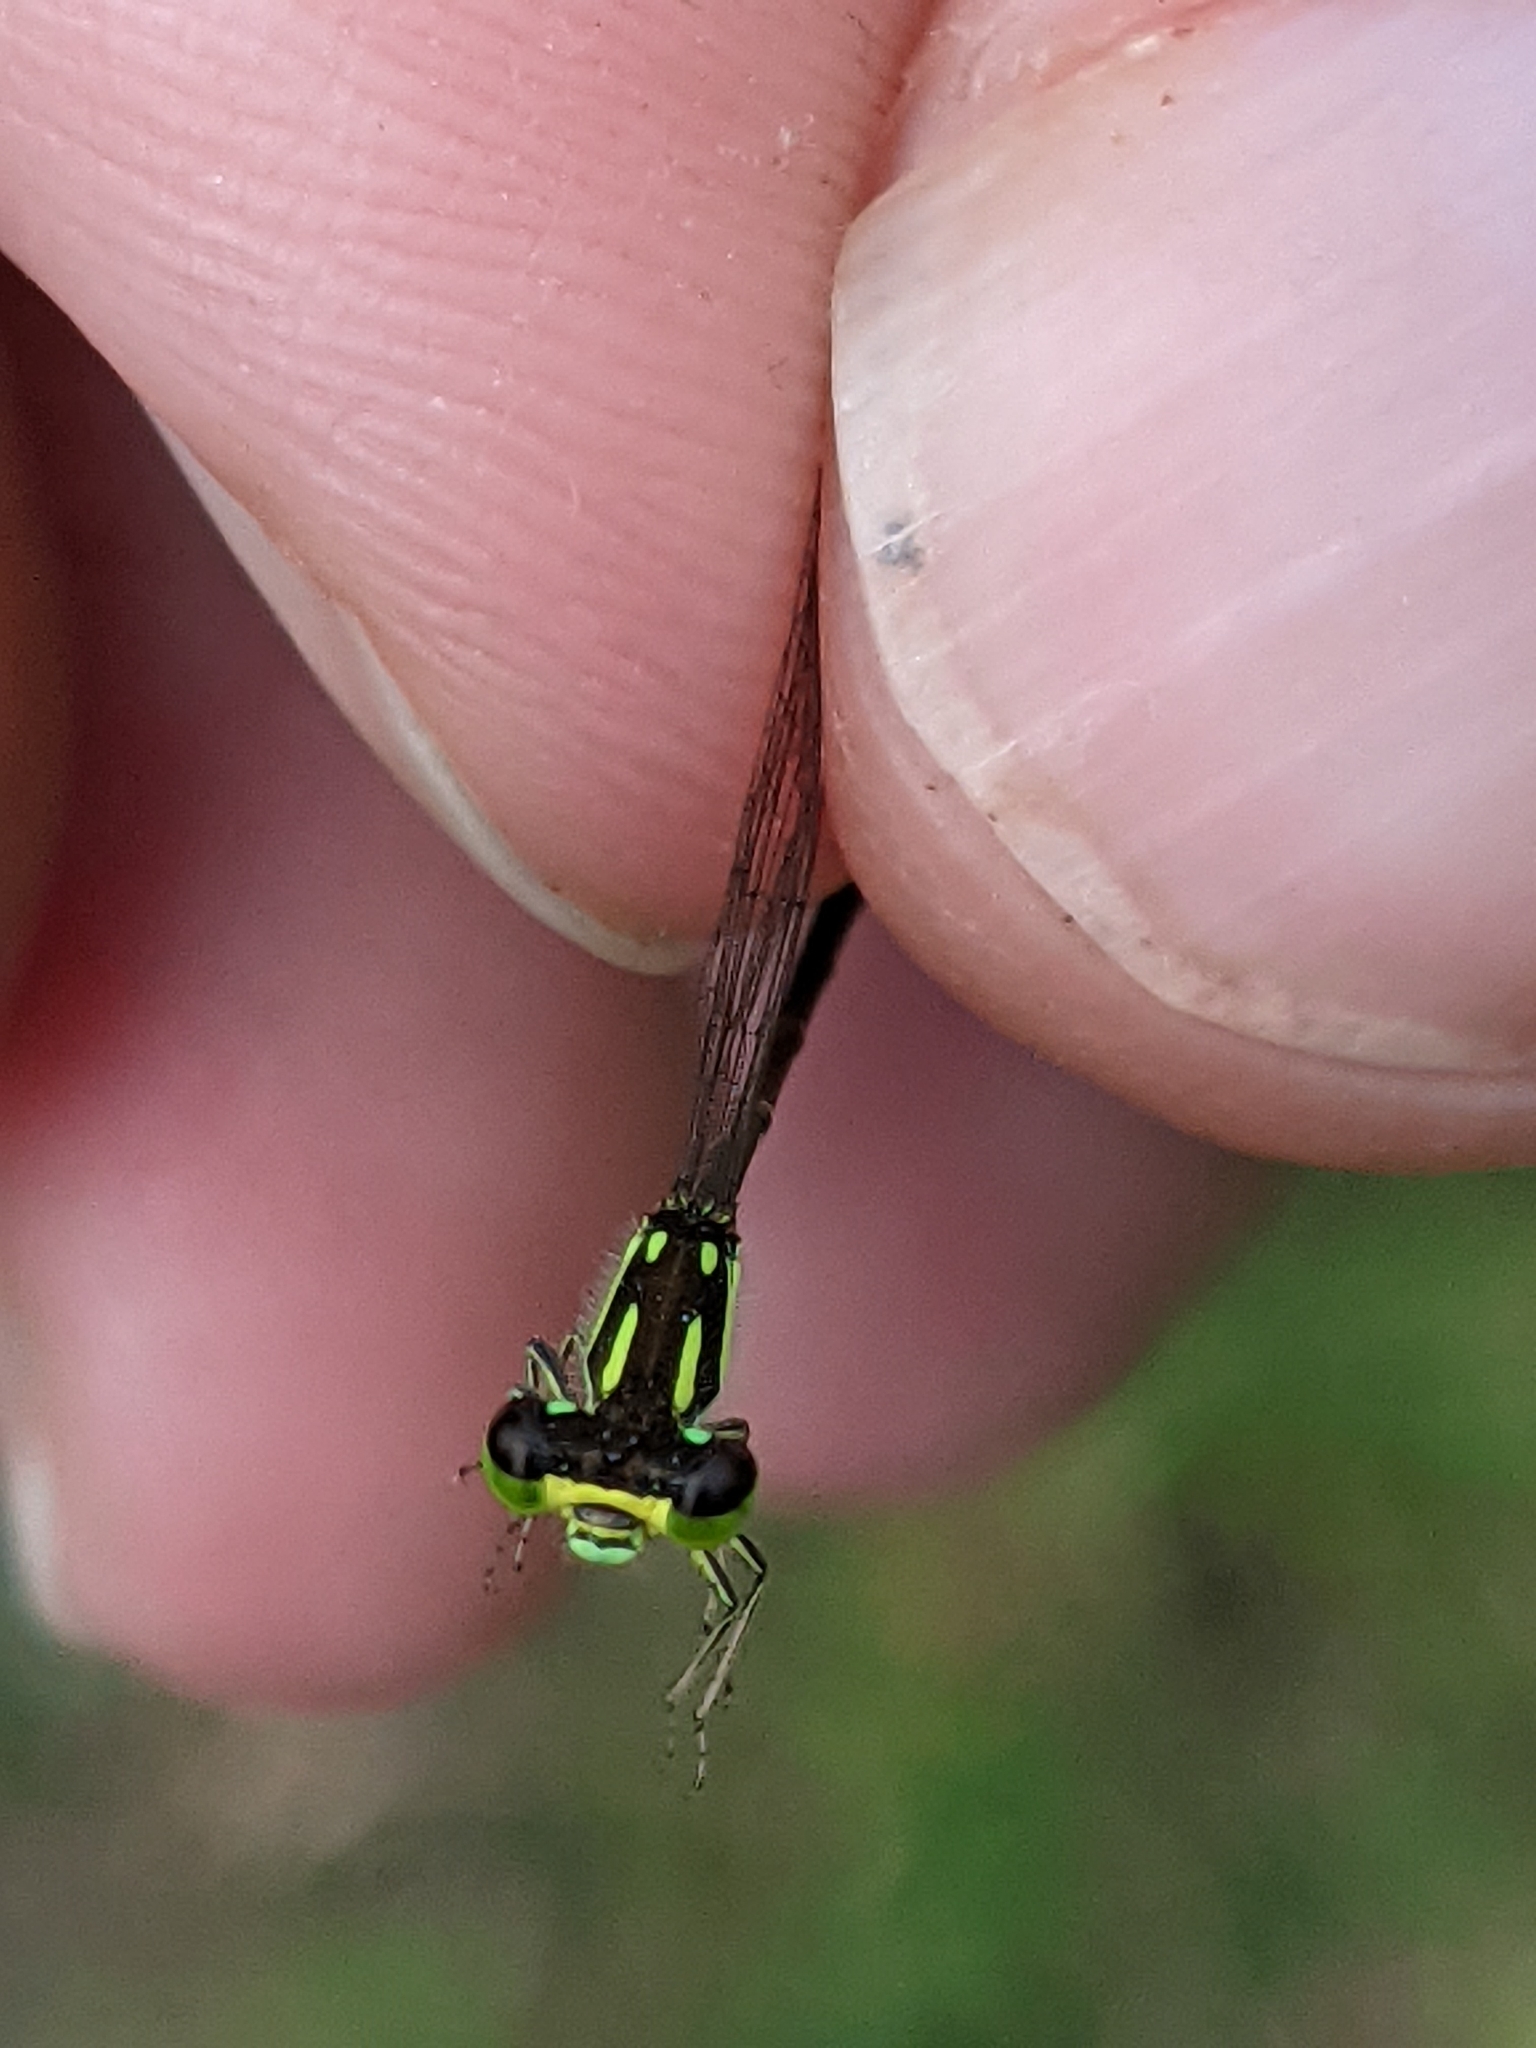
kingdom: Animalia
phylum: Arthropoda
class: Insecta
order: Odonata
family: Coenagrionidae
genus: Ischnura
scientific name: Ischnura posita
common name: Fragile forktail
